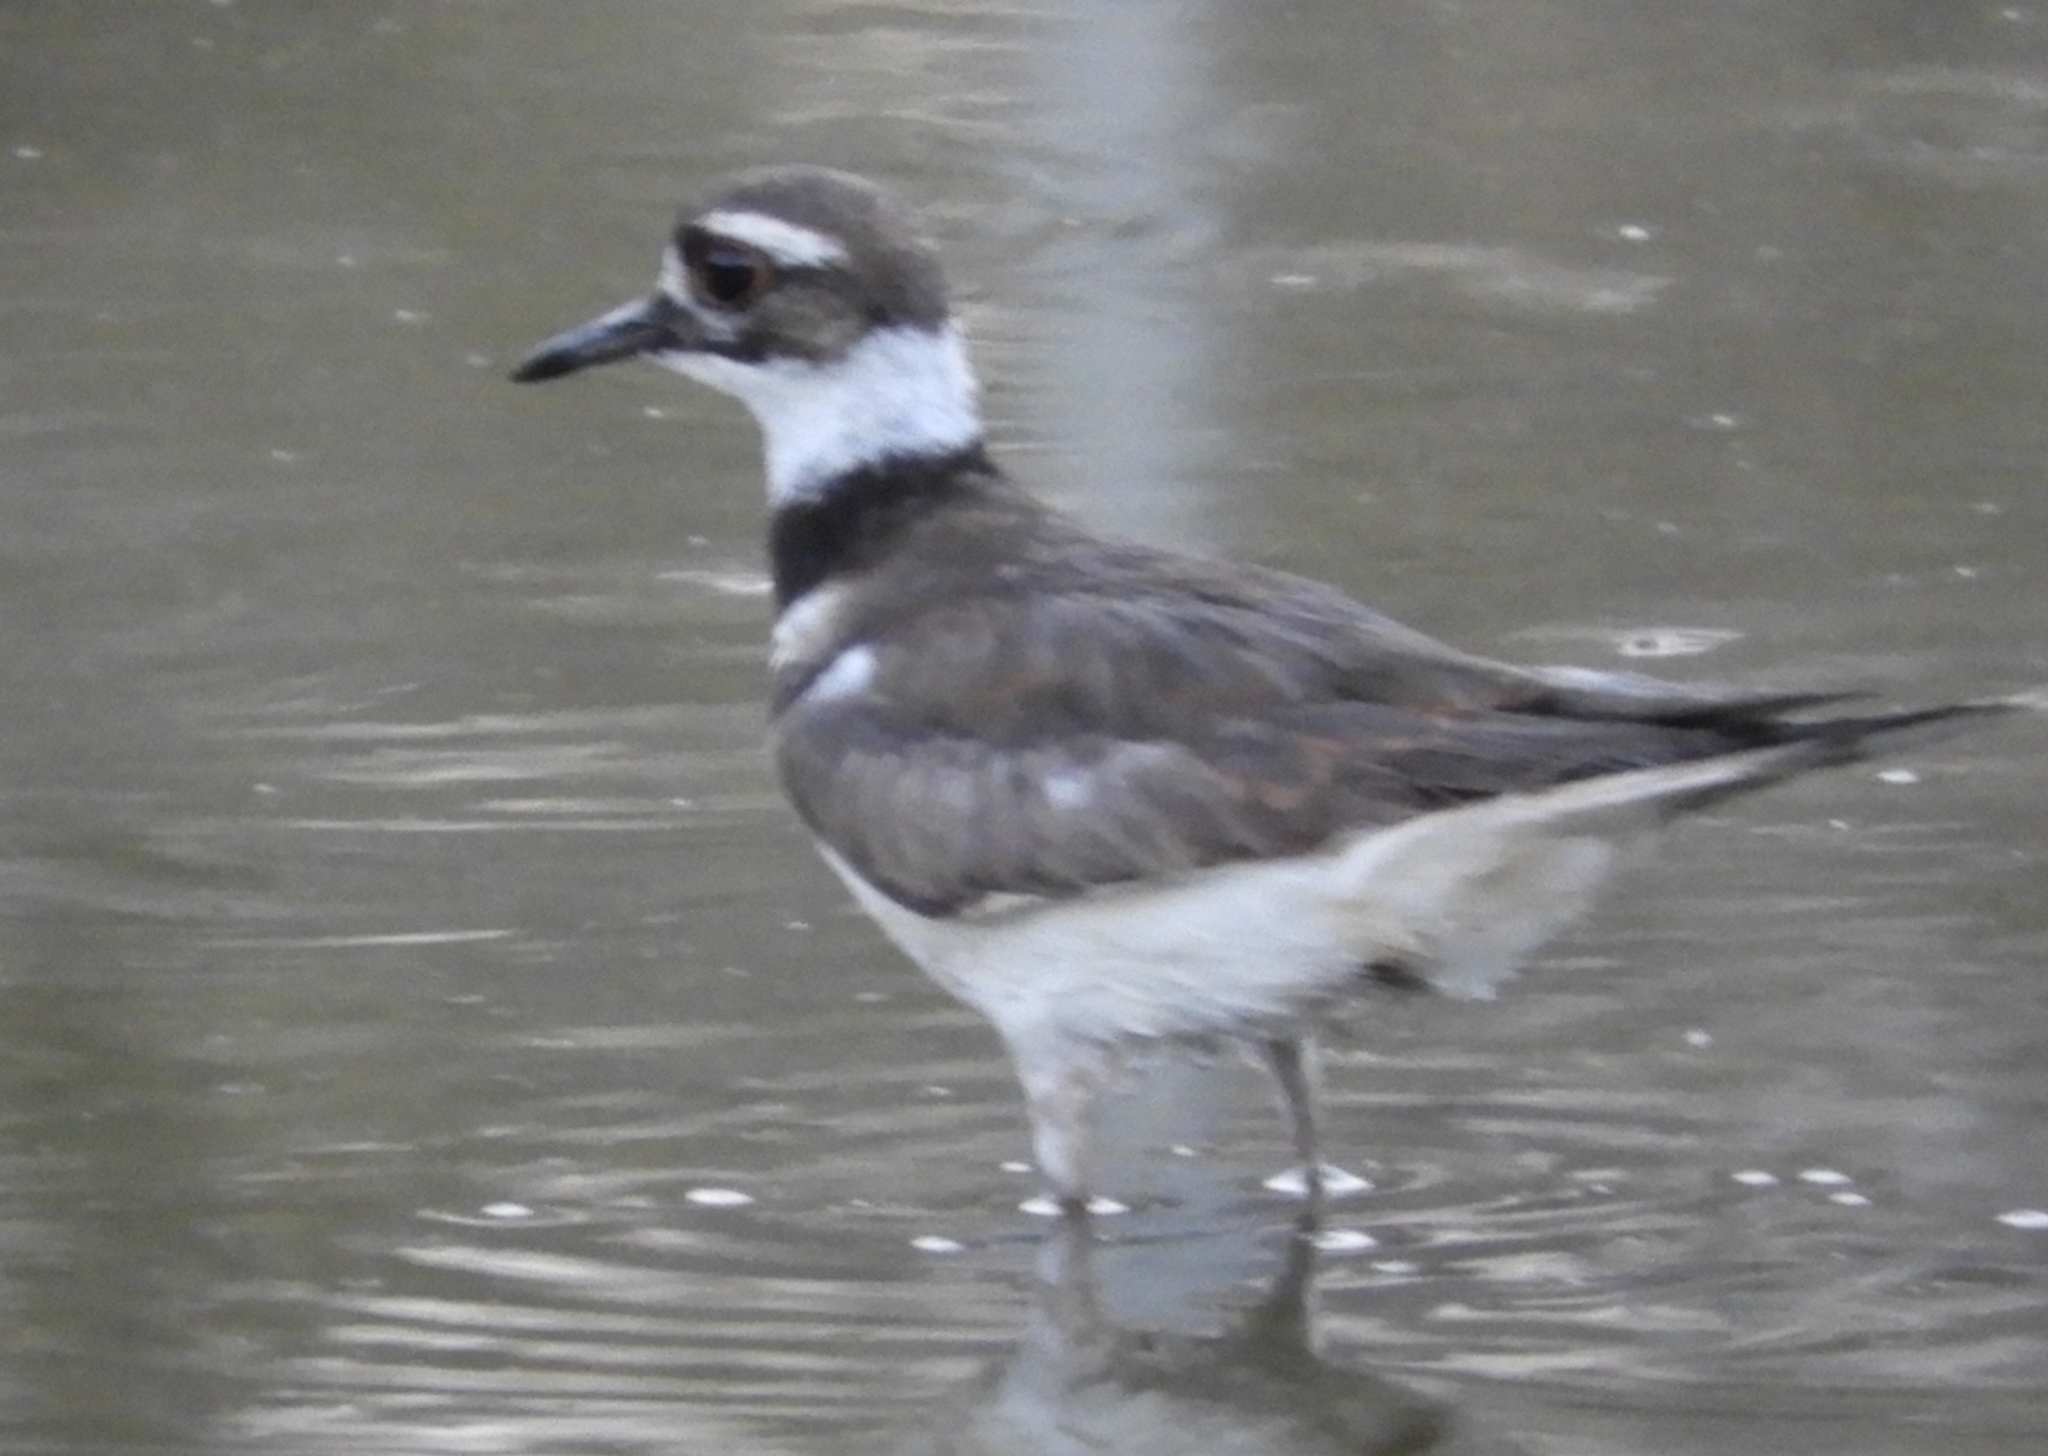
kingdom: Animalia
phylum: Chordata
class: Aves
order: Charadriiformes
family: Charadriidae
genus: Charadrius
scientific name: Charadrius vociferus
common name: Killdeer
